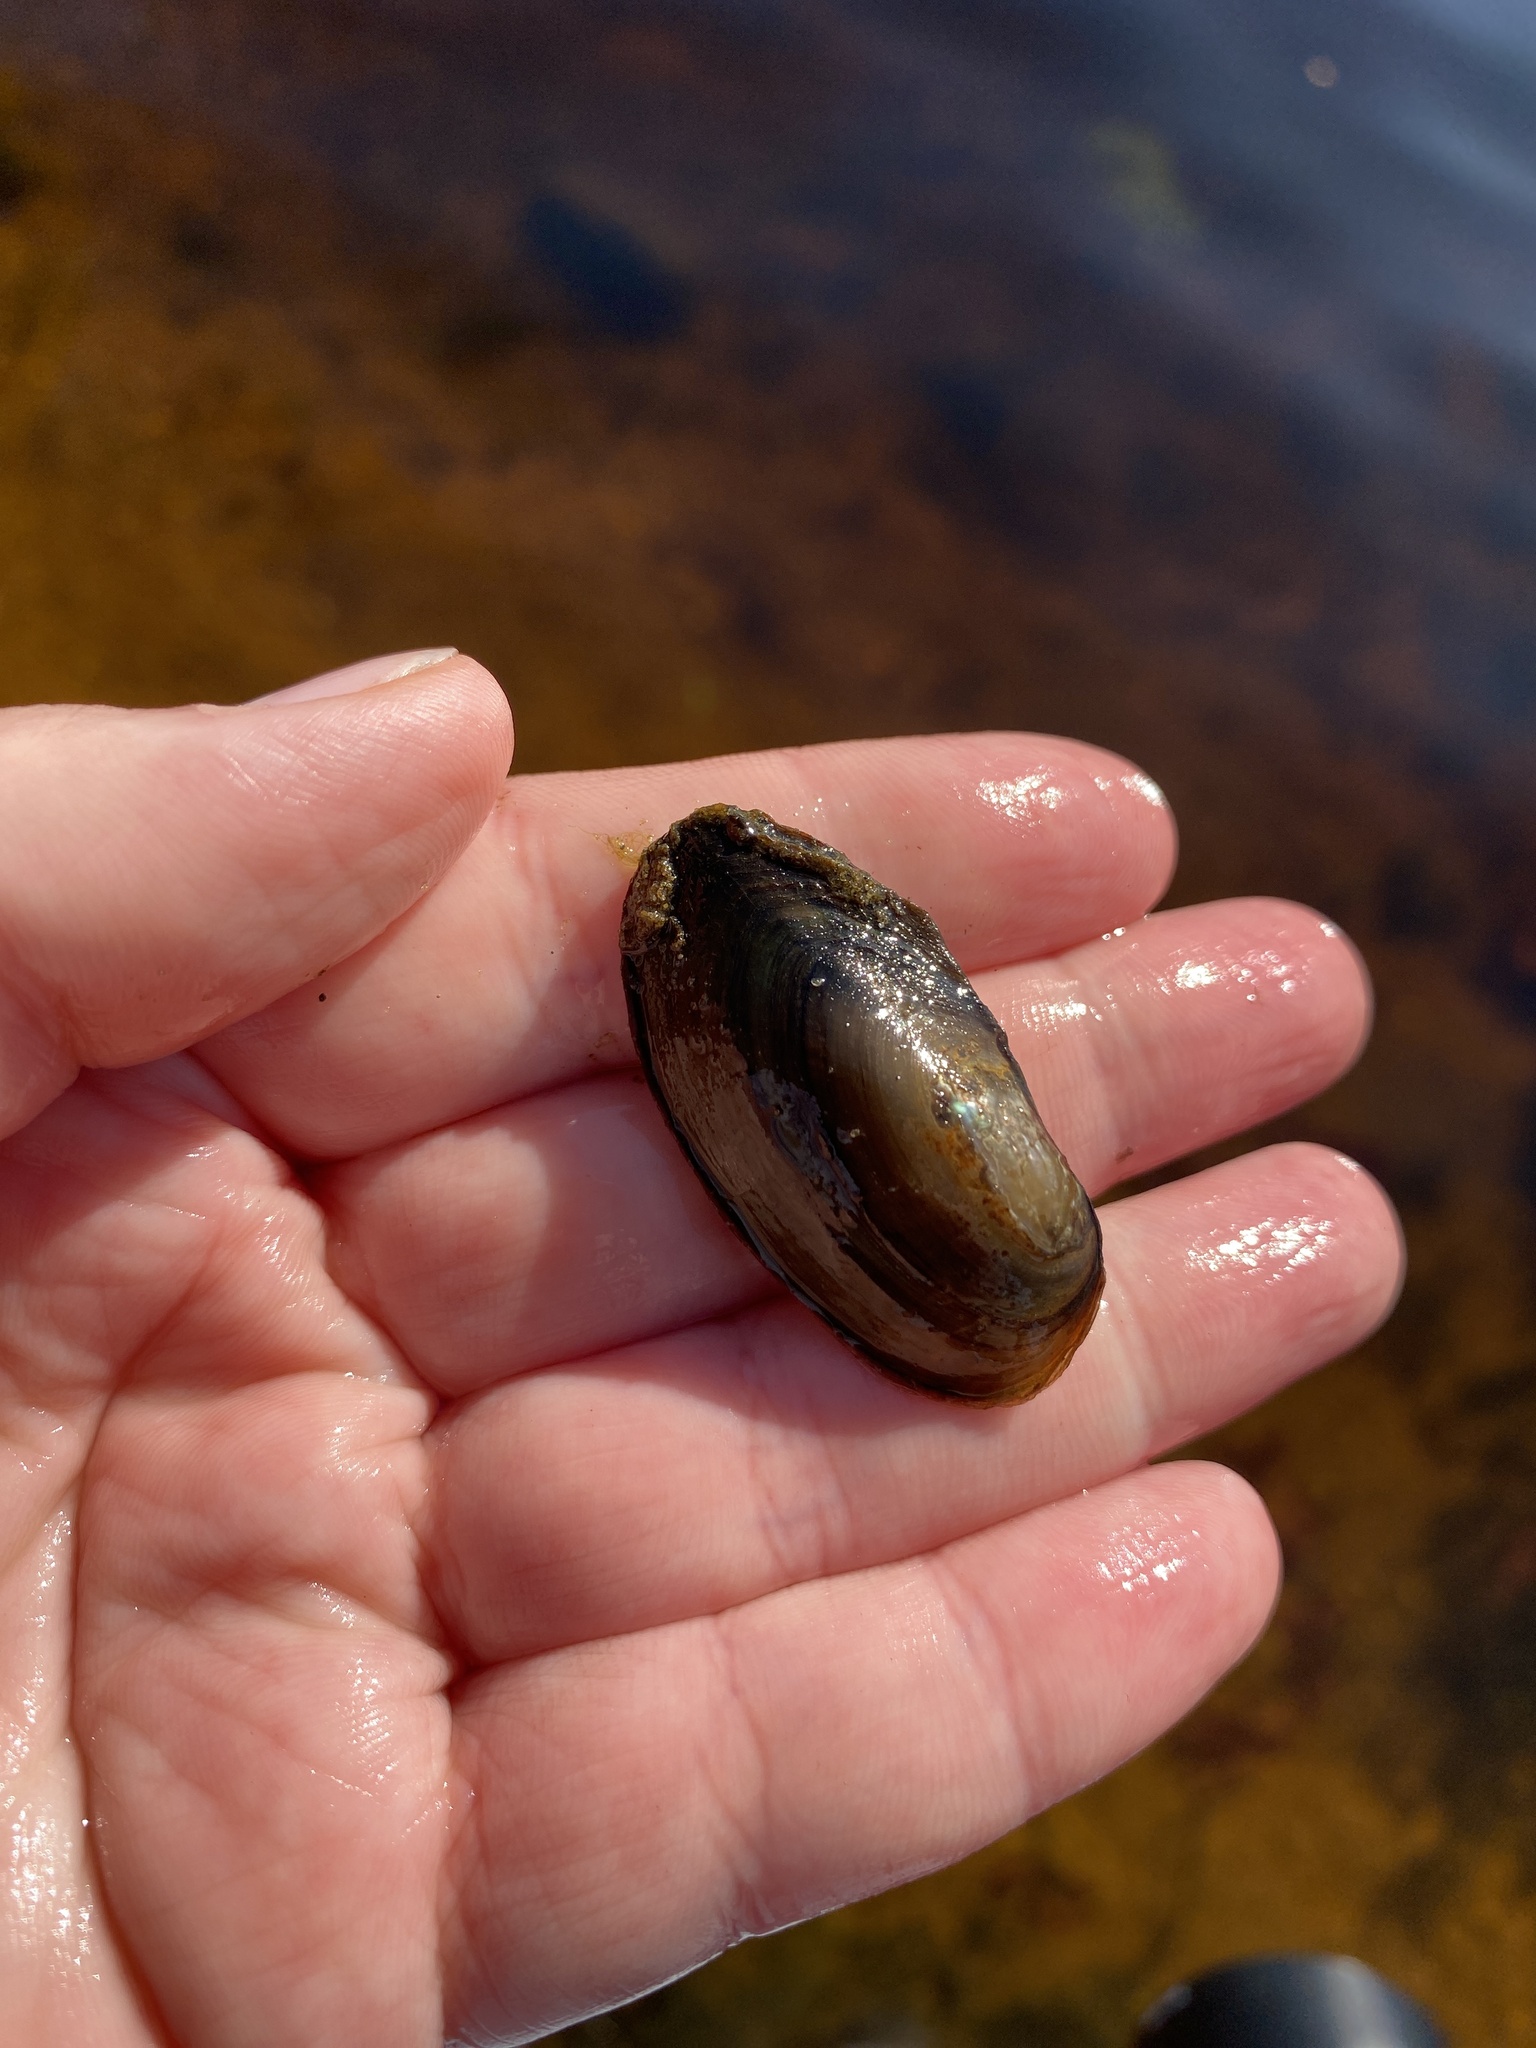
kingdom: Animalia
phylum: Mollusca
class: Bivalvia
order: Unionida
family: Unionidae
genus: Utterbackia
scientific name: Utterbackia imbecillis
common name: Paper pondshell
